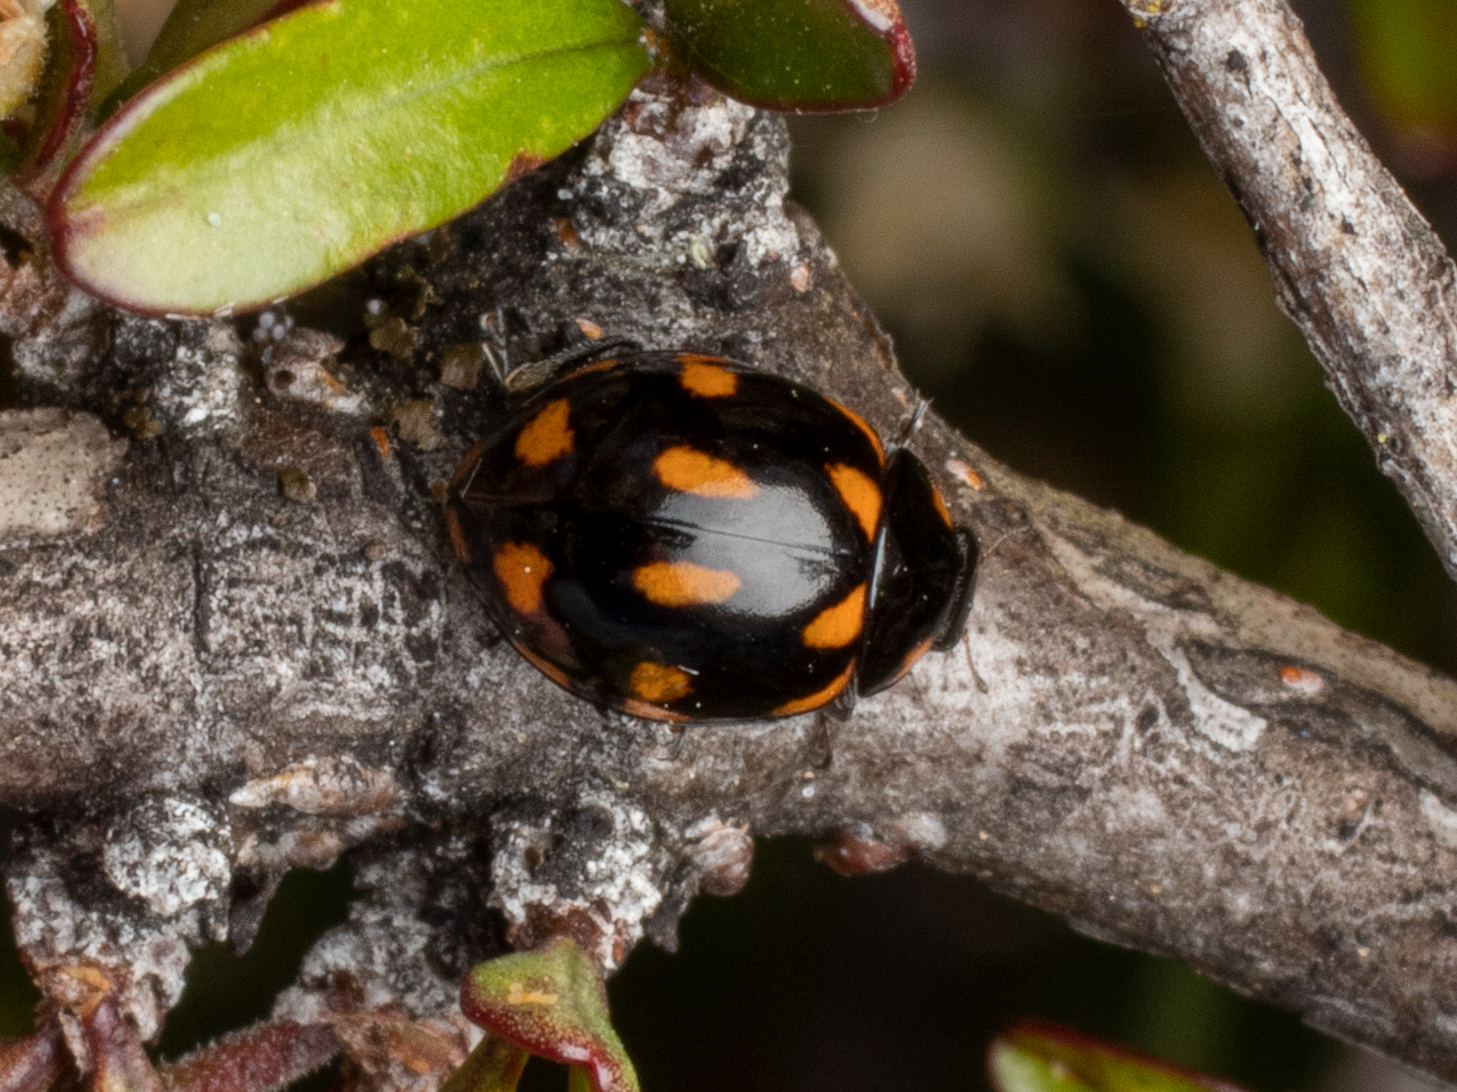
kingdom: Animalia
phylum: Arthropoda
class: Insecta
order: Coleoptera
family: Coccinellidae
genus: Coccinella
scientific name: Coccinella leonina
